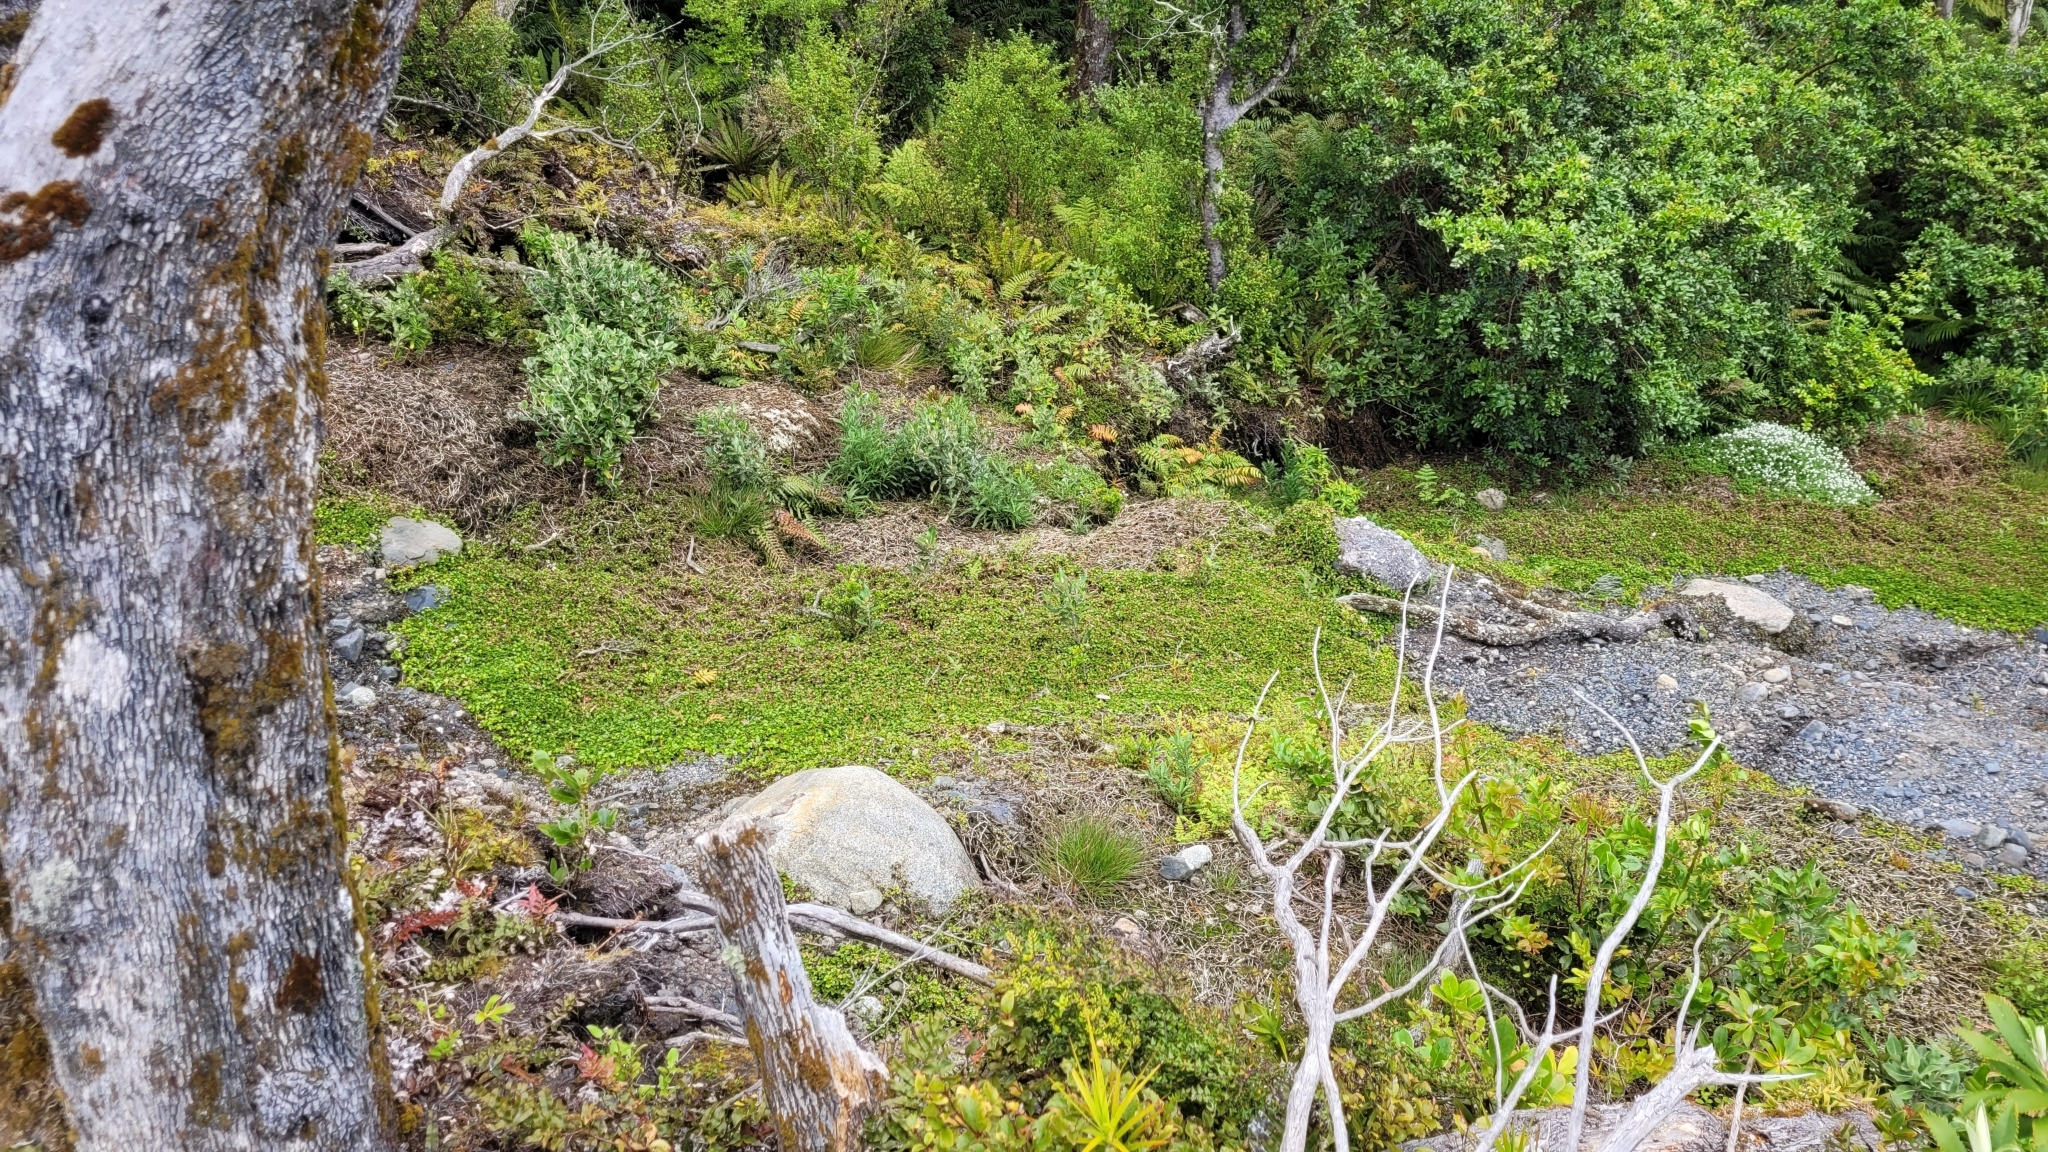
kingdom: Plantae
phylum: Tracheophyta
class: Magnoliopsida
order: Gunnerales
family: Gunneraceae
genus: Gunnera
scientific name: Gunnera monoica
